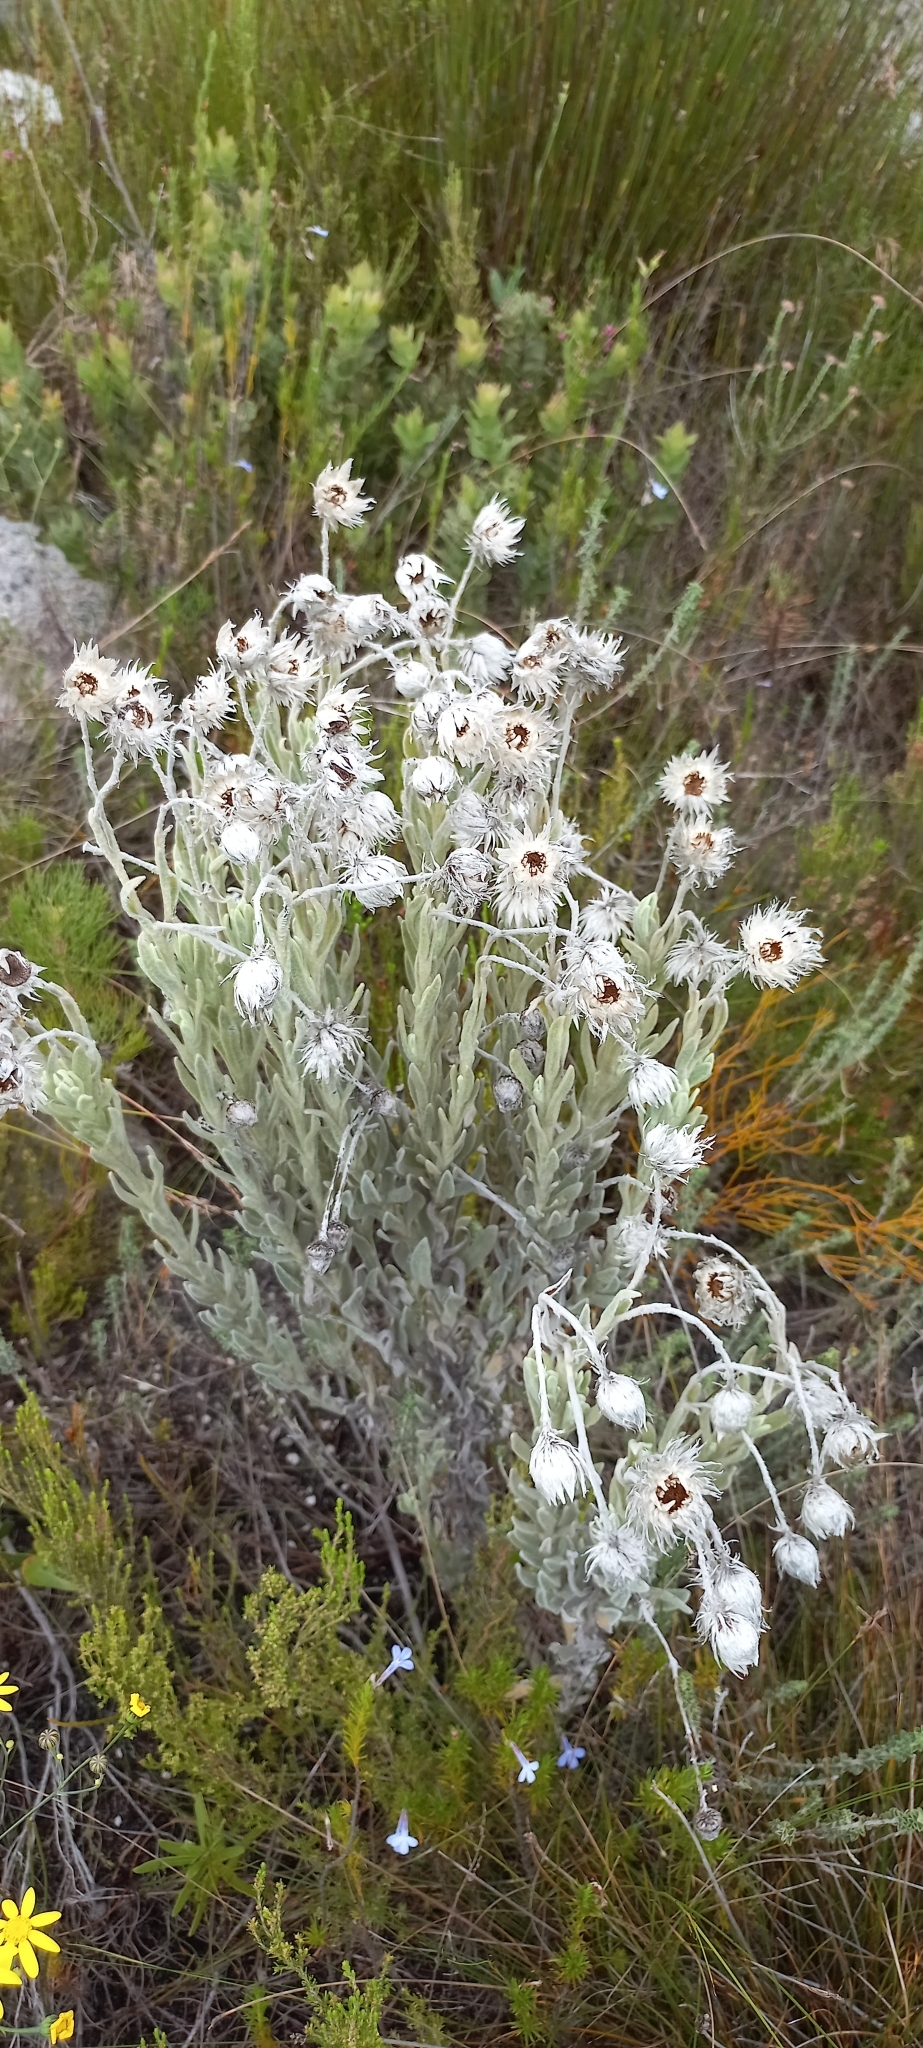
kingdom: Plantae
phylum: Tracheophyta
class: Magnoliopsida
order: Asterales
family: Asteraceae
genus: Syncarpha
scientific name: Syncarpha vestita
